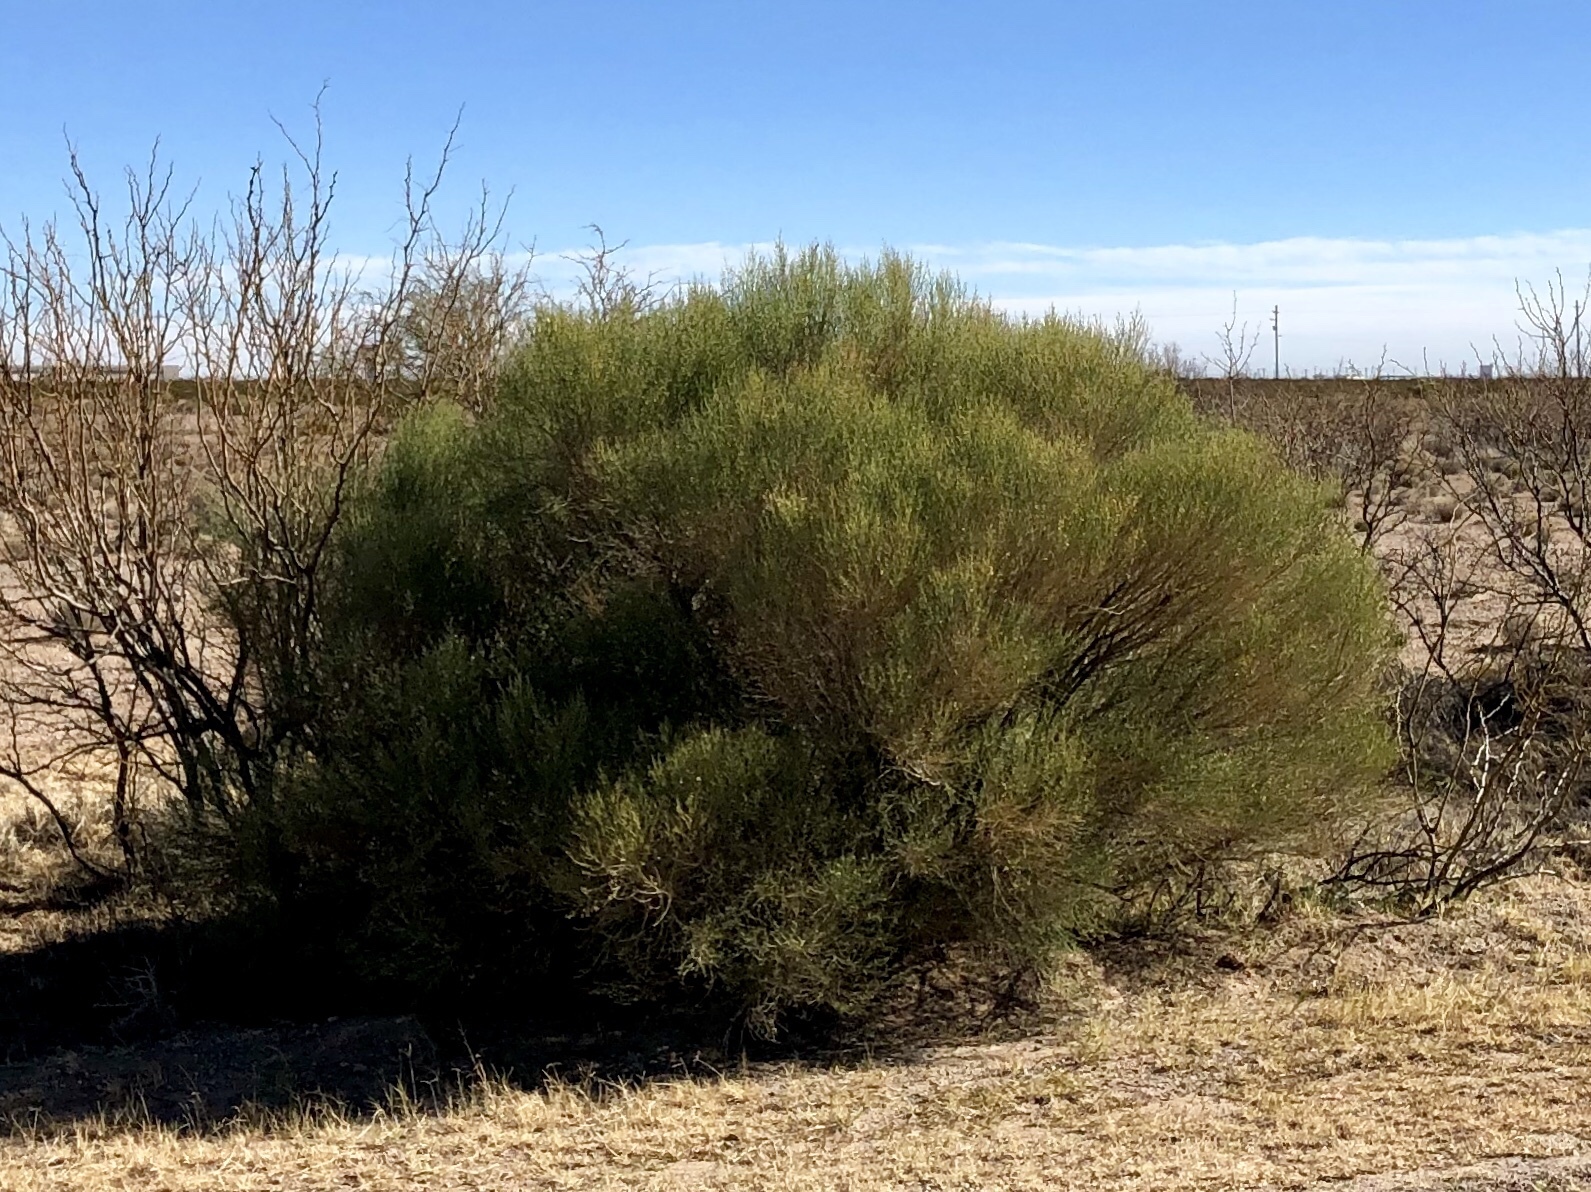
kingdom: Plantae
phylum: Tracheophyta
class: Magnoliopsida
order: Asterales
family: Asteraceae
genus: Baccharis
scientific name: Baccharis sarothroides
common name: Desert-broom
